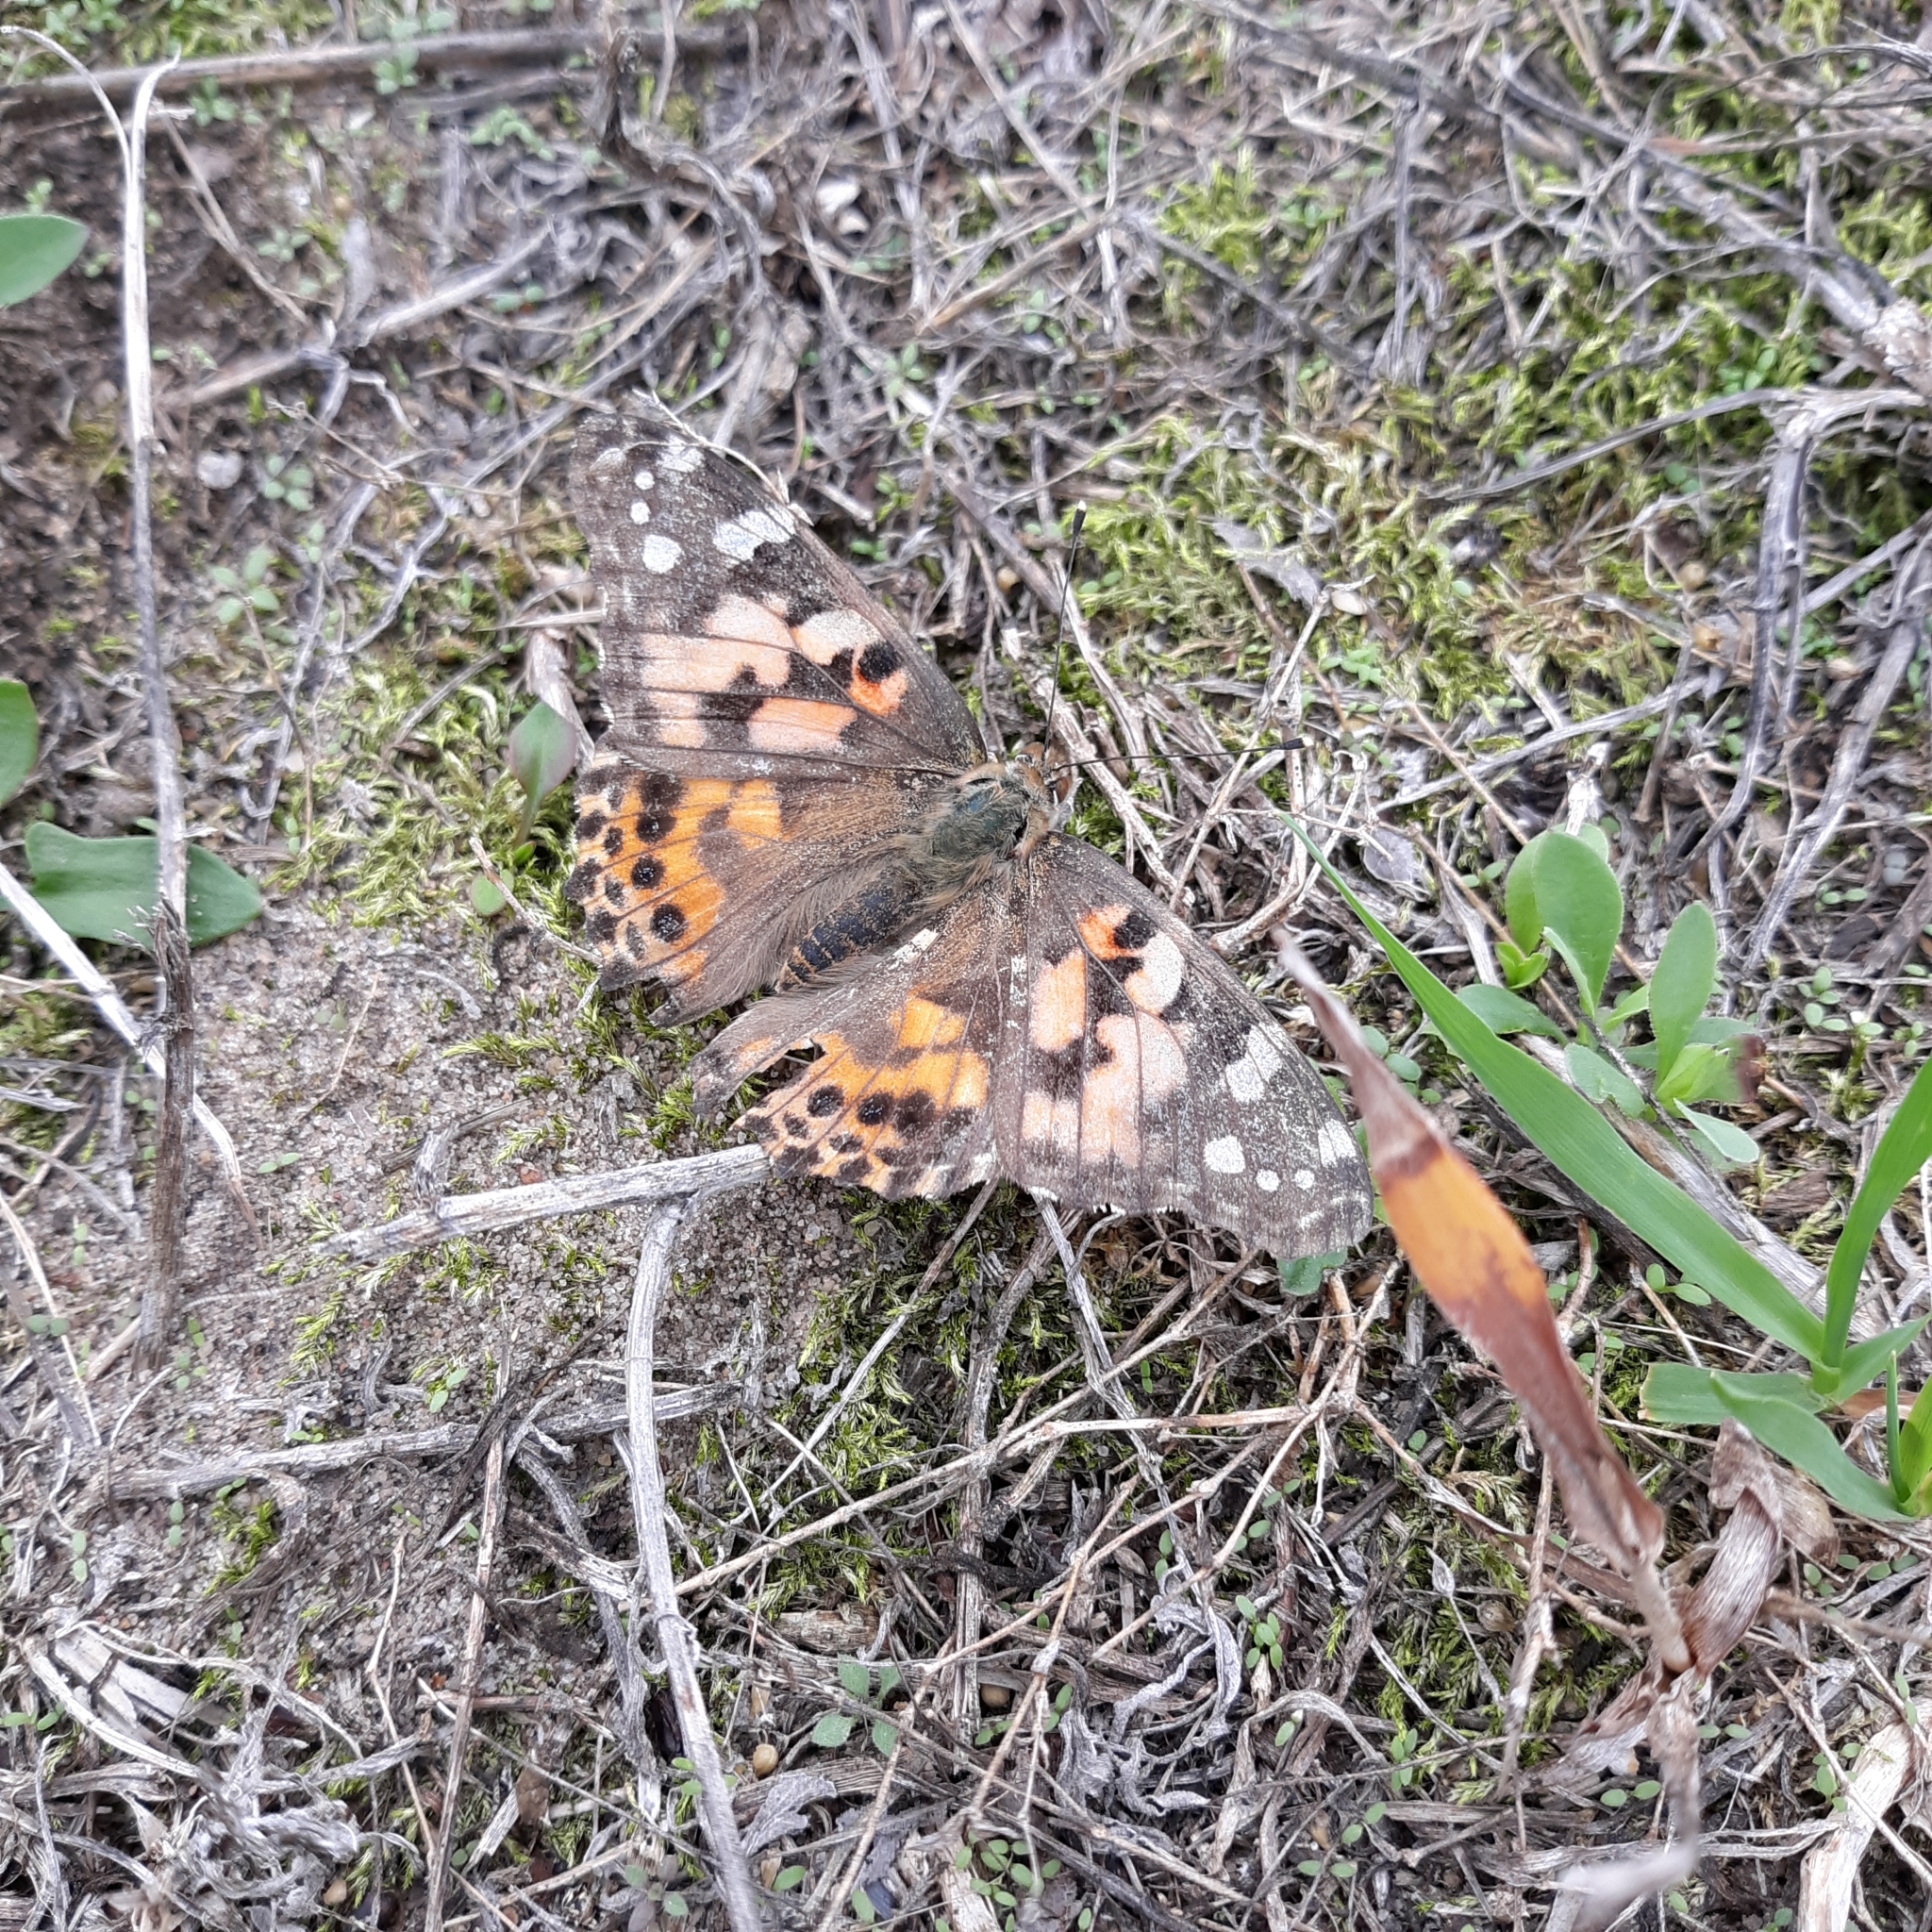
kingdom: Animalia
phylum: Arthropoda
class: Insecta
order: Lepidoptera
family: Nymphalidae
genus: Vanessa
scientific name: Vanessa cardui
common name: Painted lady
